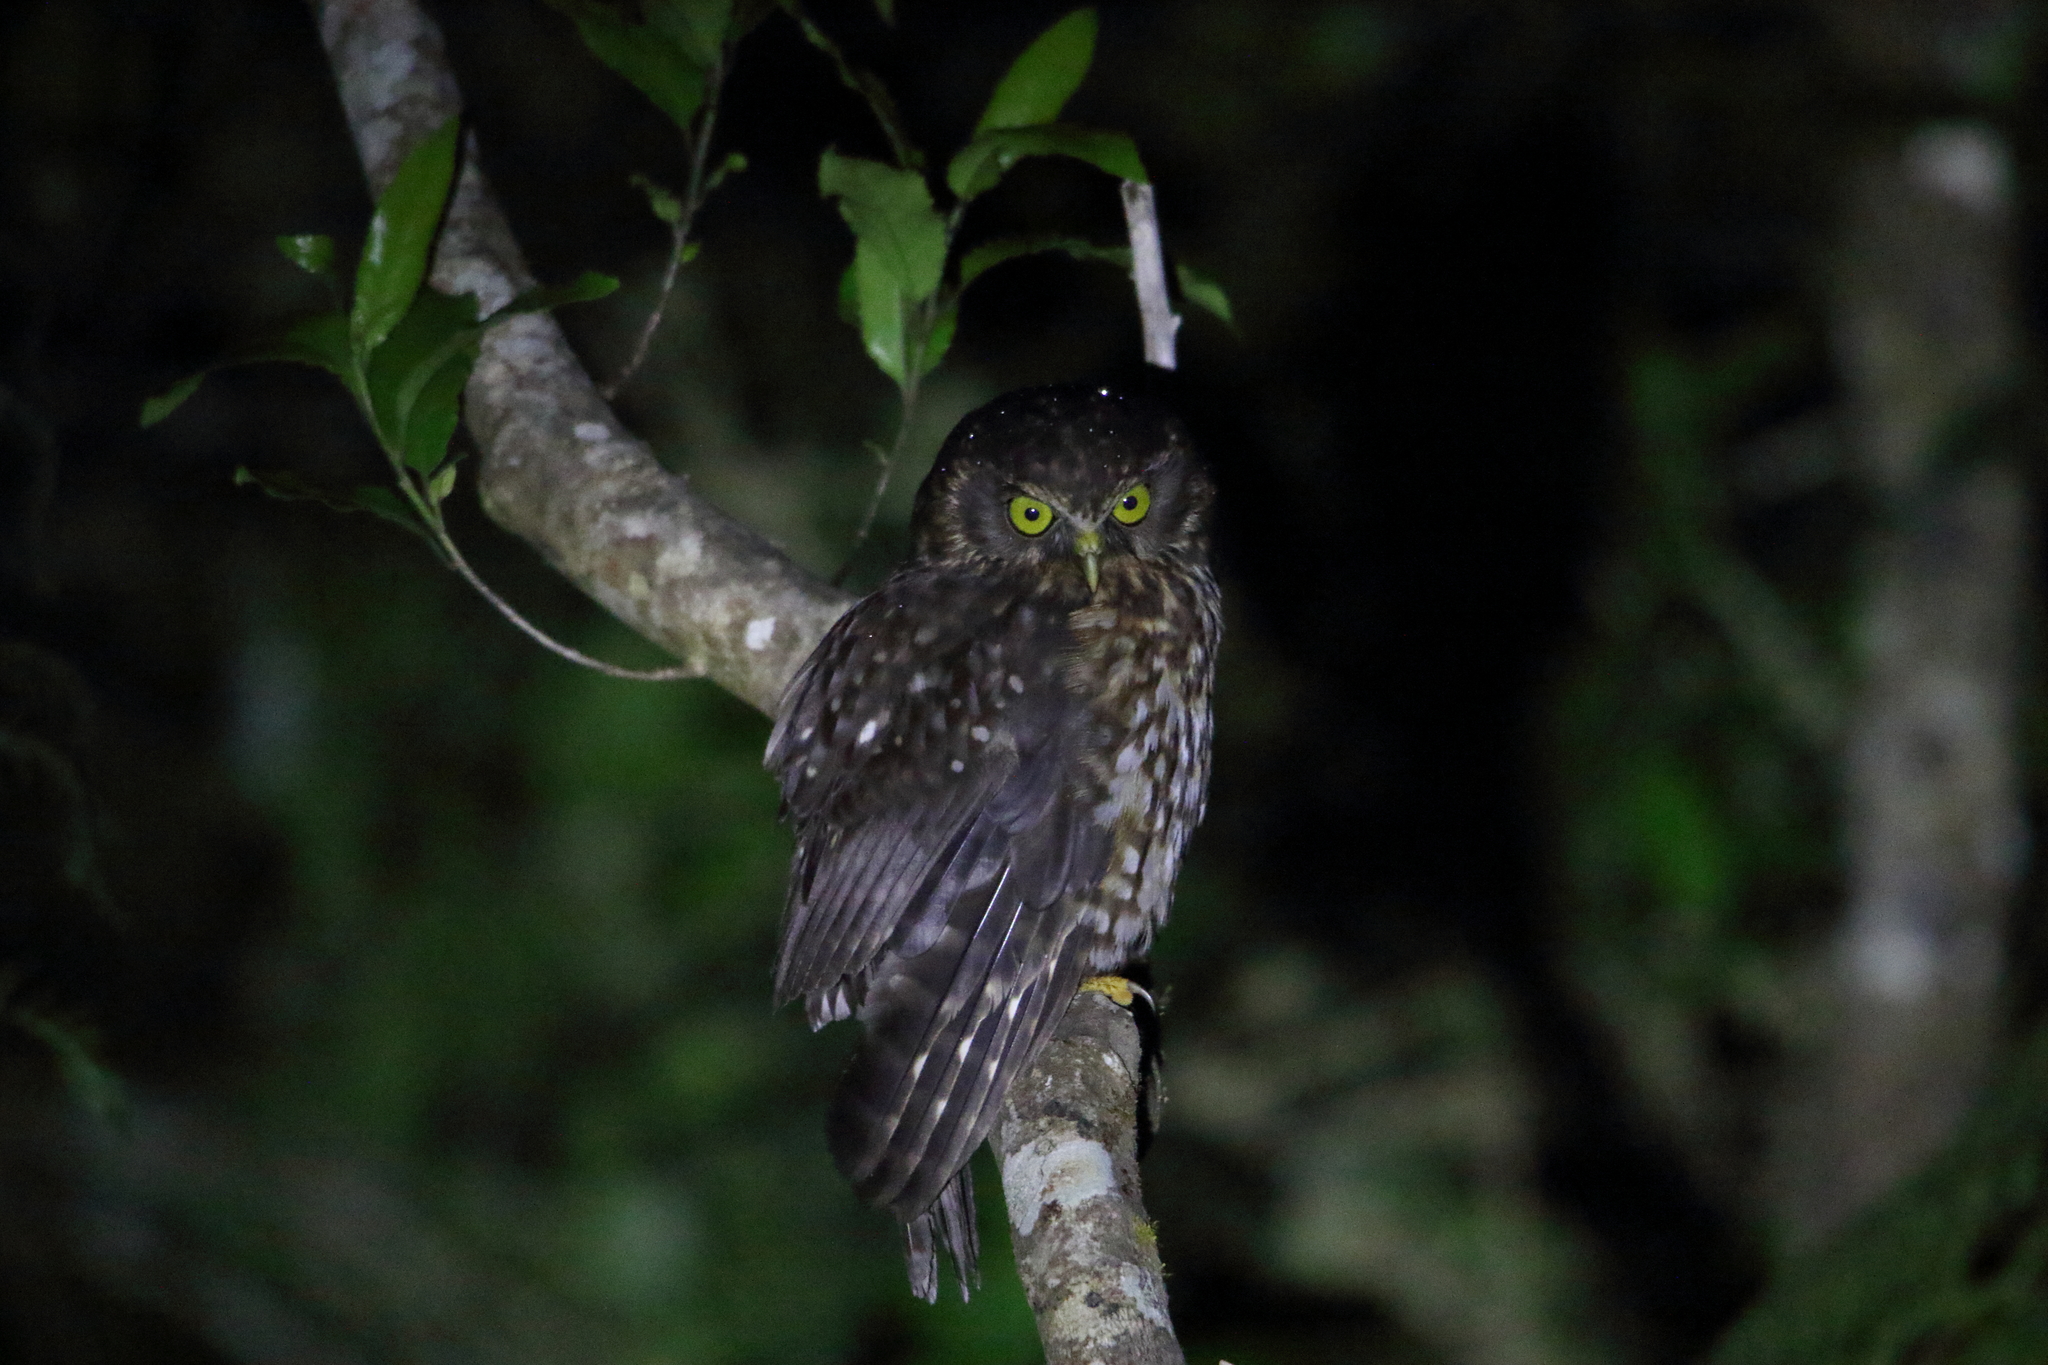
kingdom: Animalia
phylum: Chordata
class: Aves
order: Strigiformes
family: Strigidae
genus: Ninox
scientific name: Ninox novaeseelandiae
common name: Morepork
